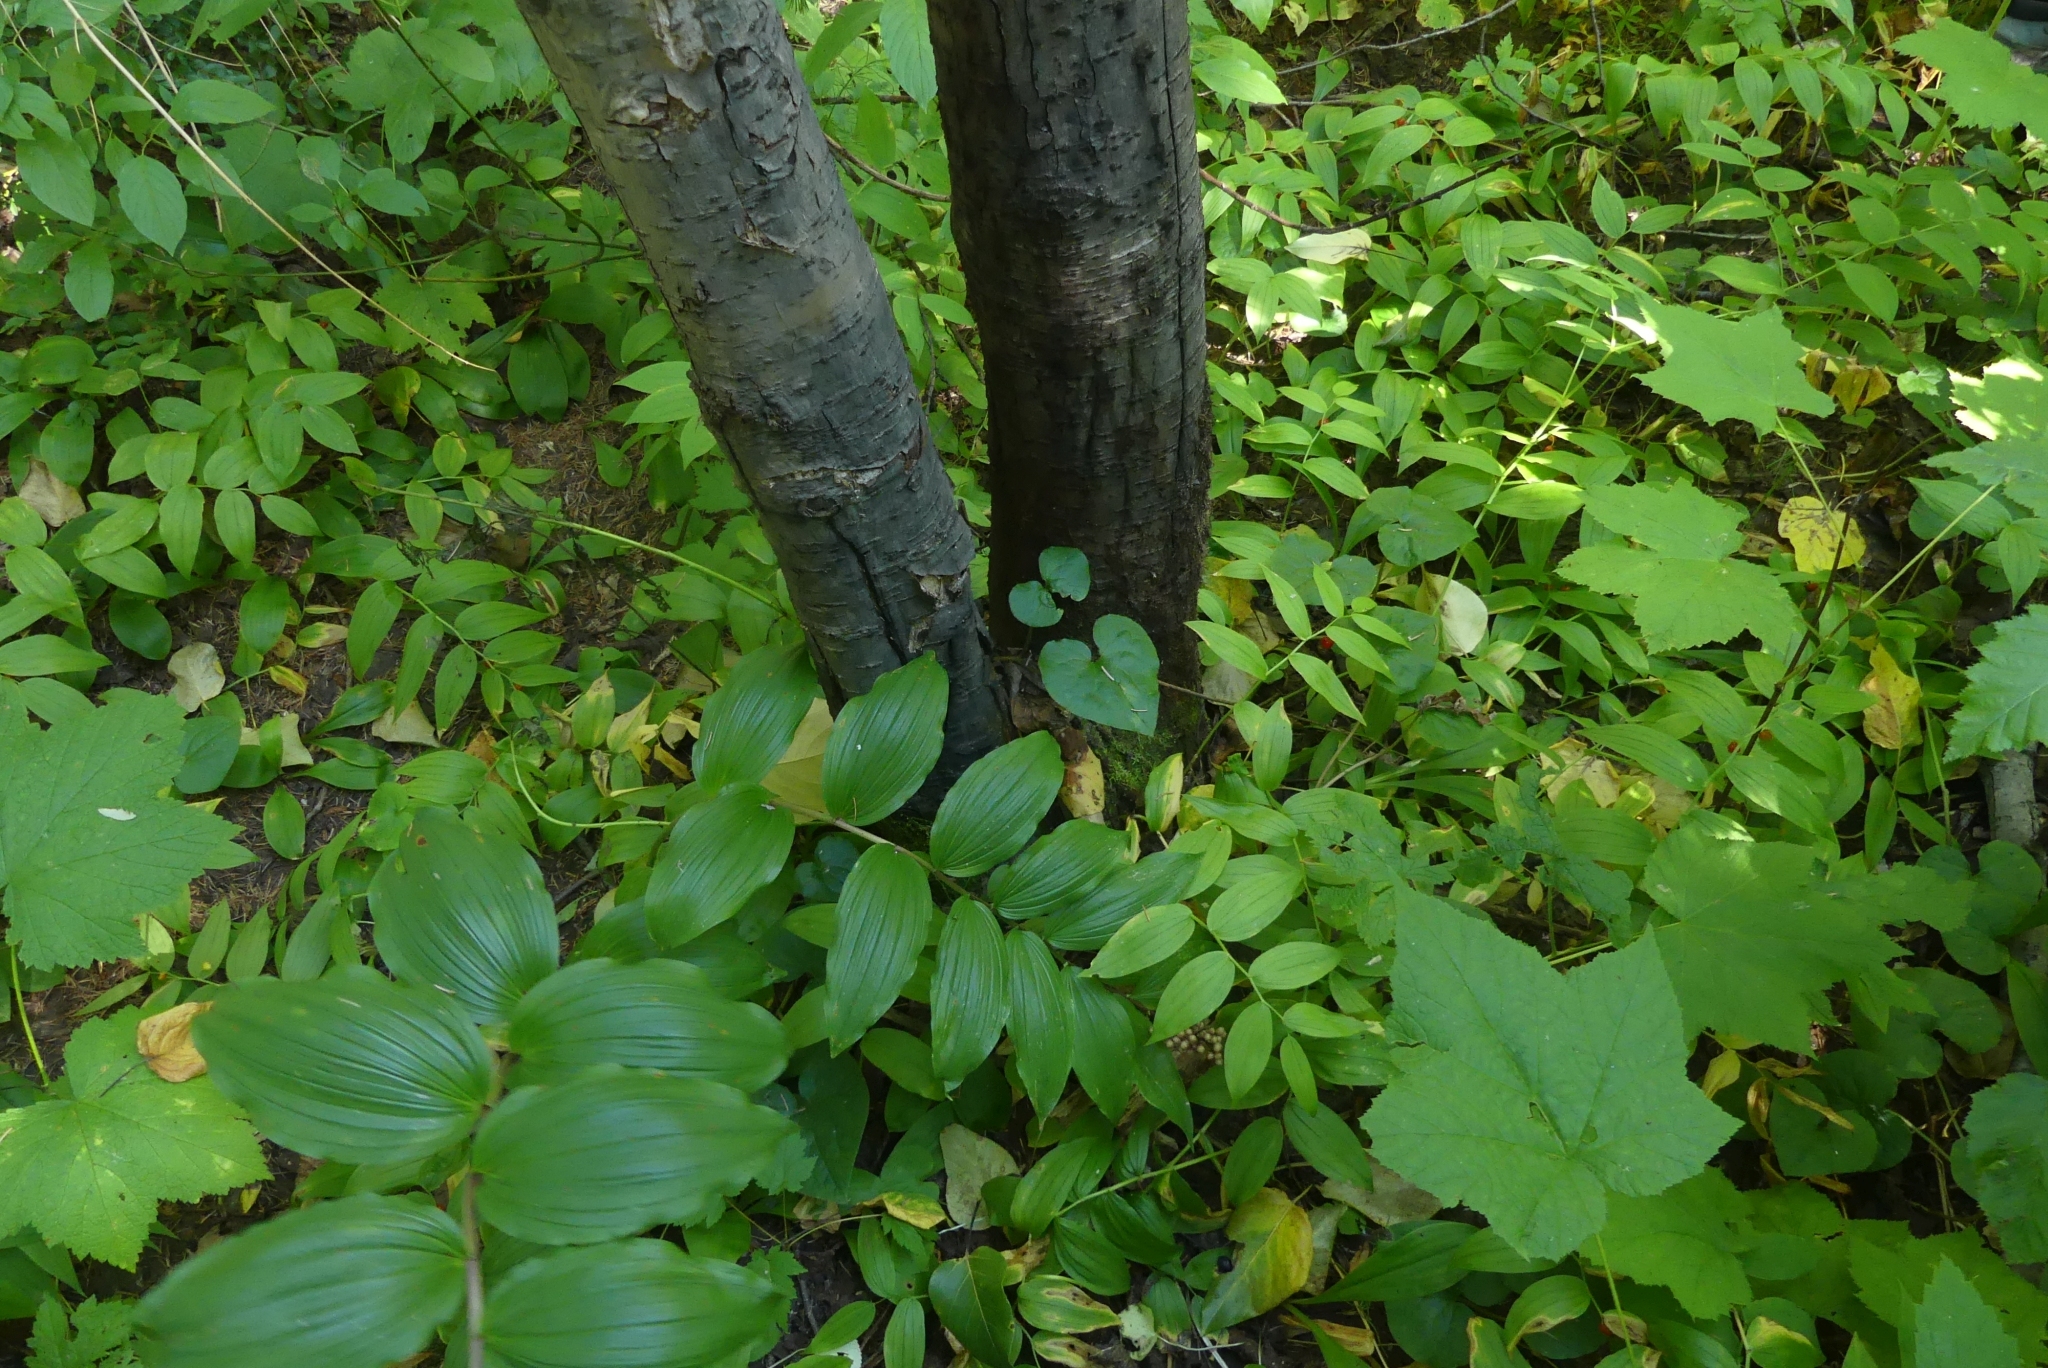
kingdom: Plantae
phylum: Tracheophyta
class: Liliopsida
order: Asparagales
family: Asparagaceae
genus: Maianthemum
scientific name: Maianthemum racemosum
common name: False spikenard
